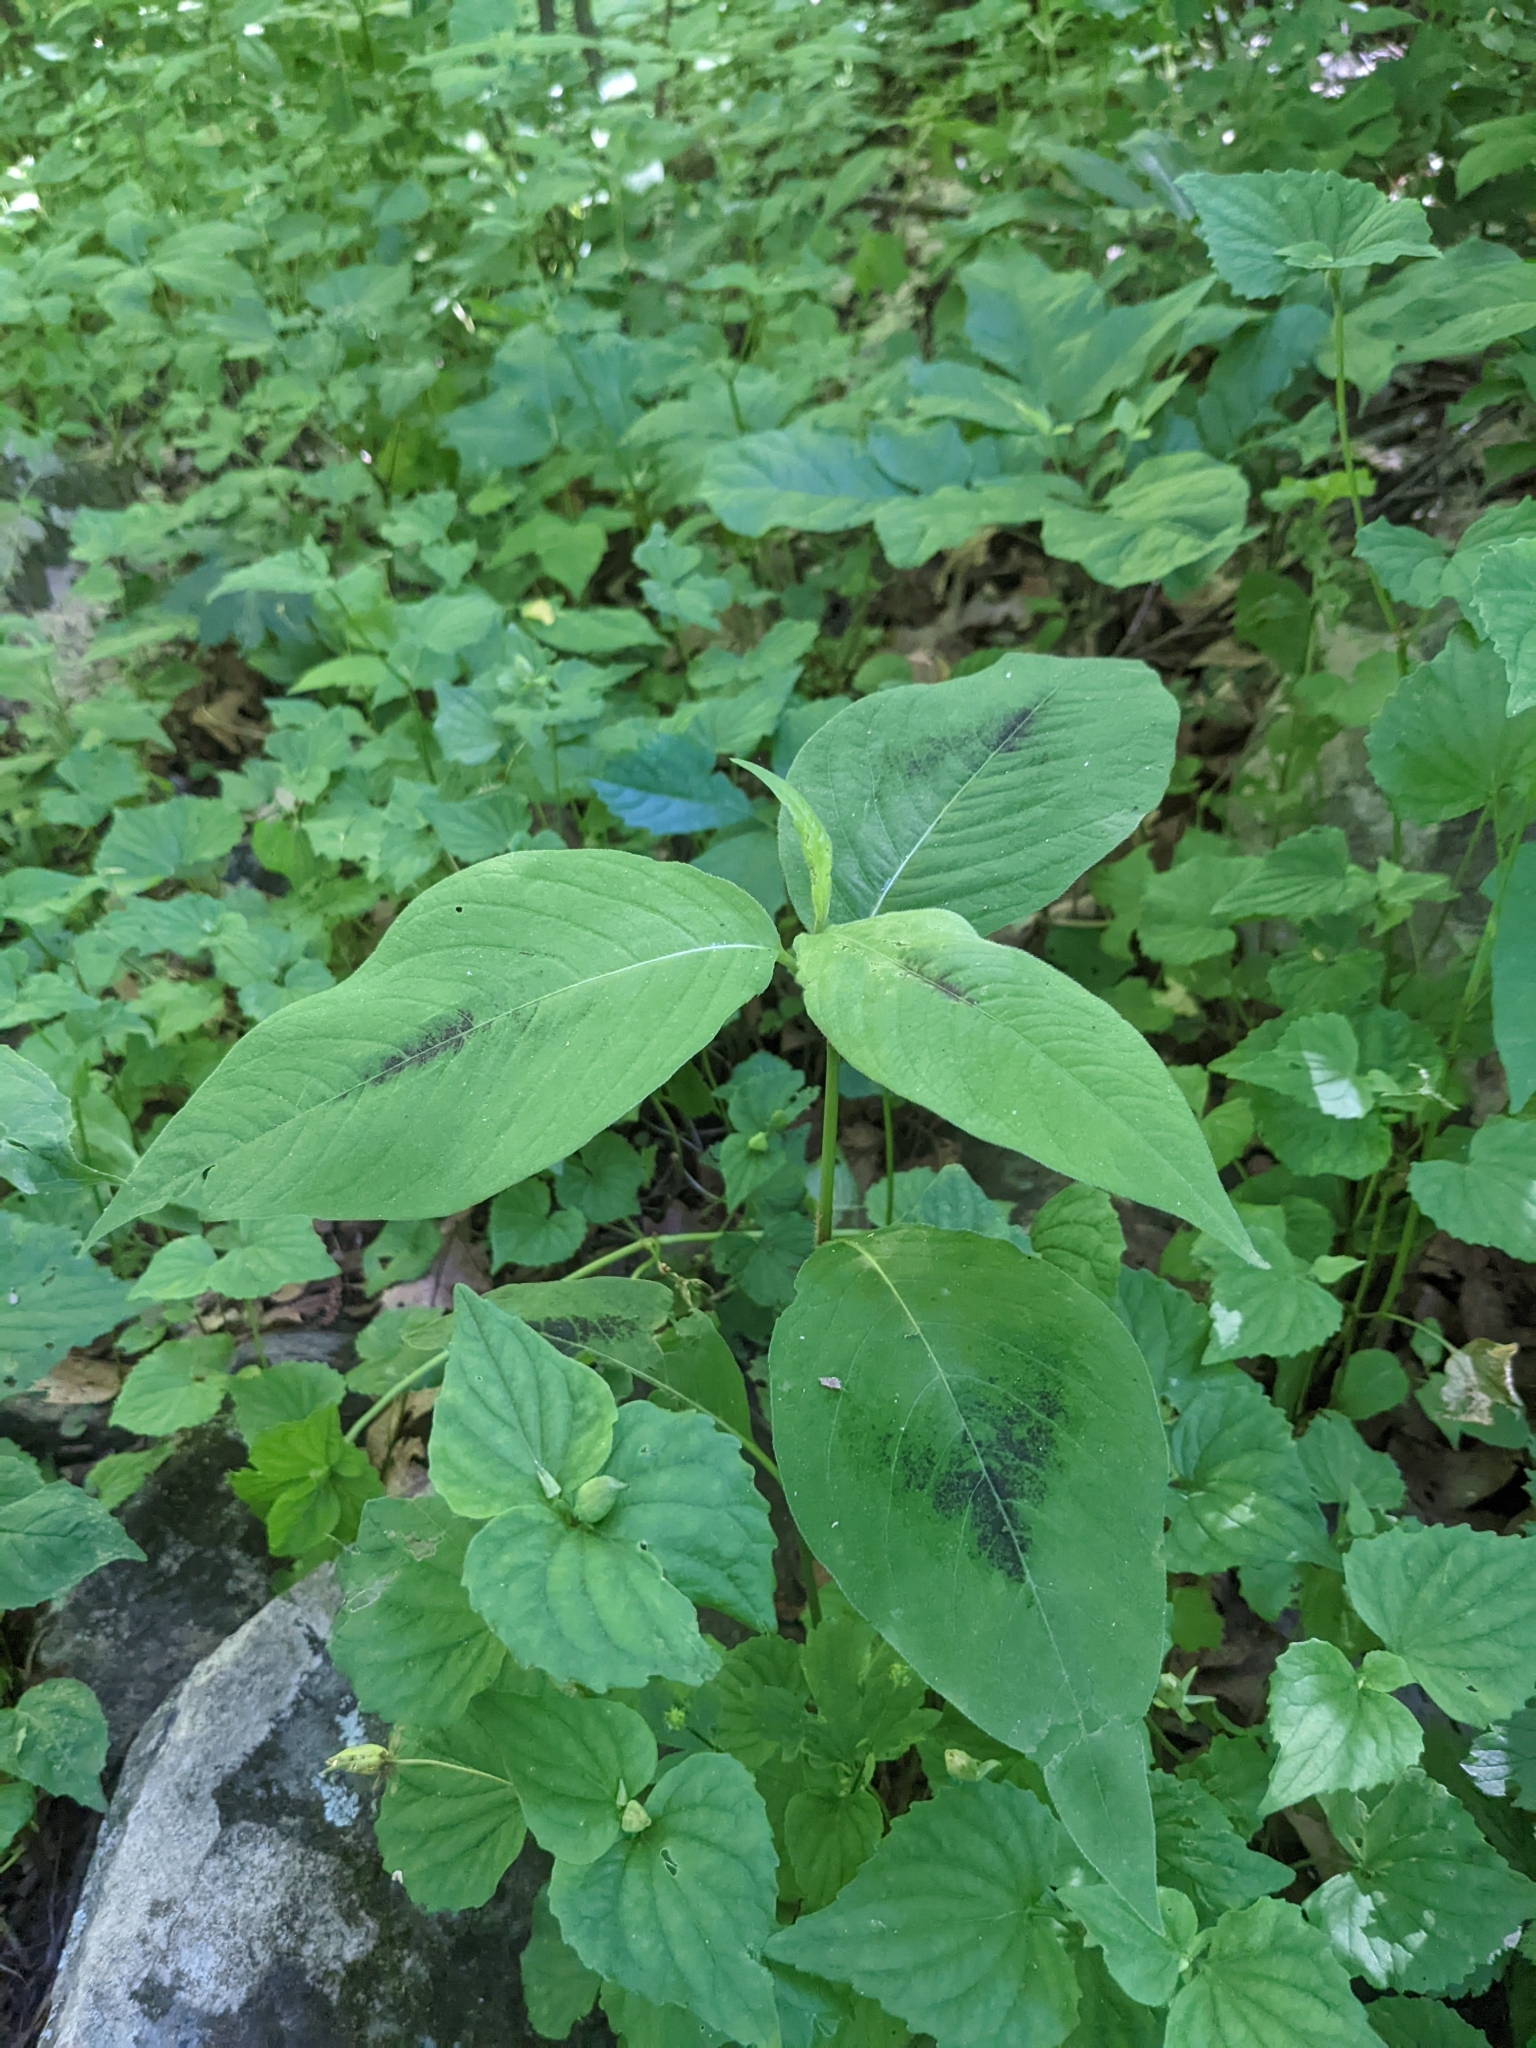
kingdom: Plantae
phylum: Tracheophyta
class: Magnoliopsida
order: Caryophyllales
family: Polygonaceae
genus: Persicaria
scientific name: Persicaria virginiana
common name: Jumpseed
